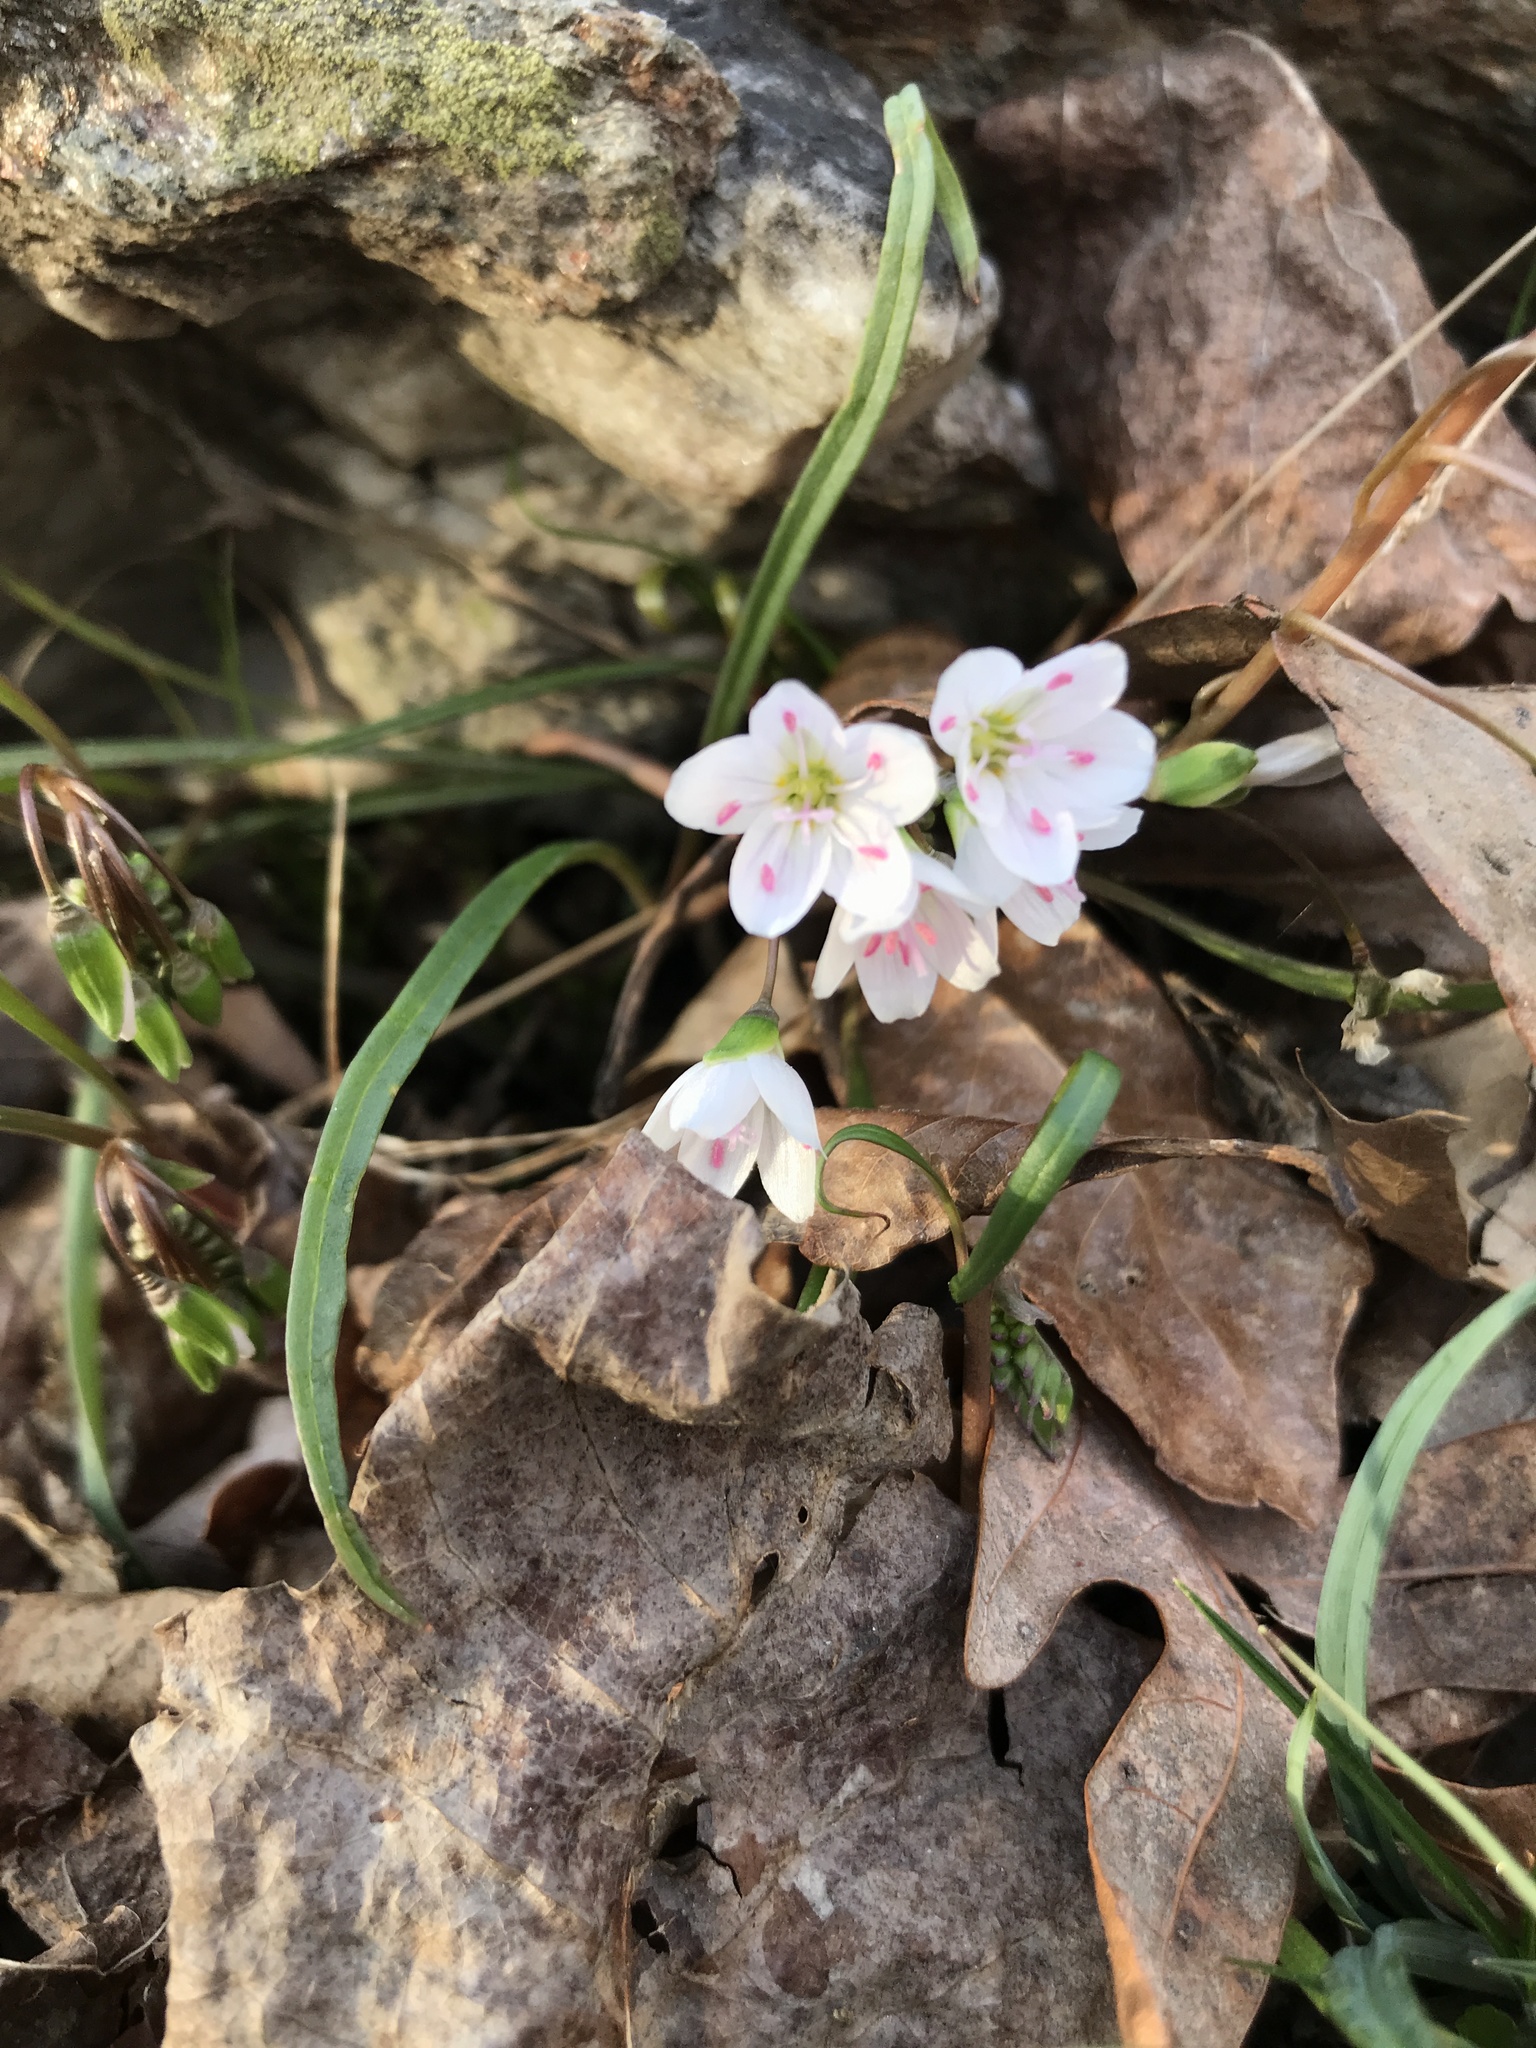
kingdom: Plantae
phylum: Tracheophyta
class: Magnoliopsida
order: Caryophyllales
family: Montiaceae
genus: Claytonia
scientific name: Claytonia virginica
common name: Virginia springbeauty
